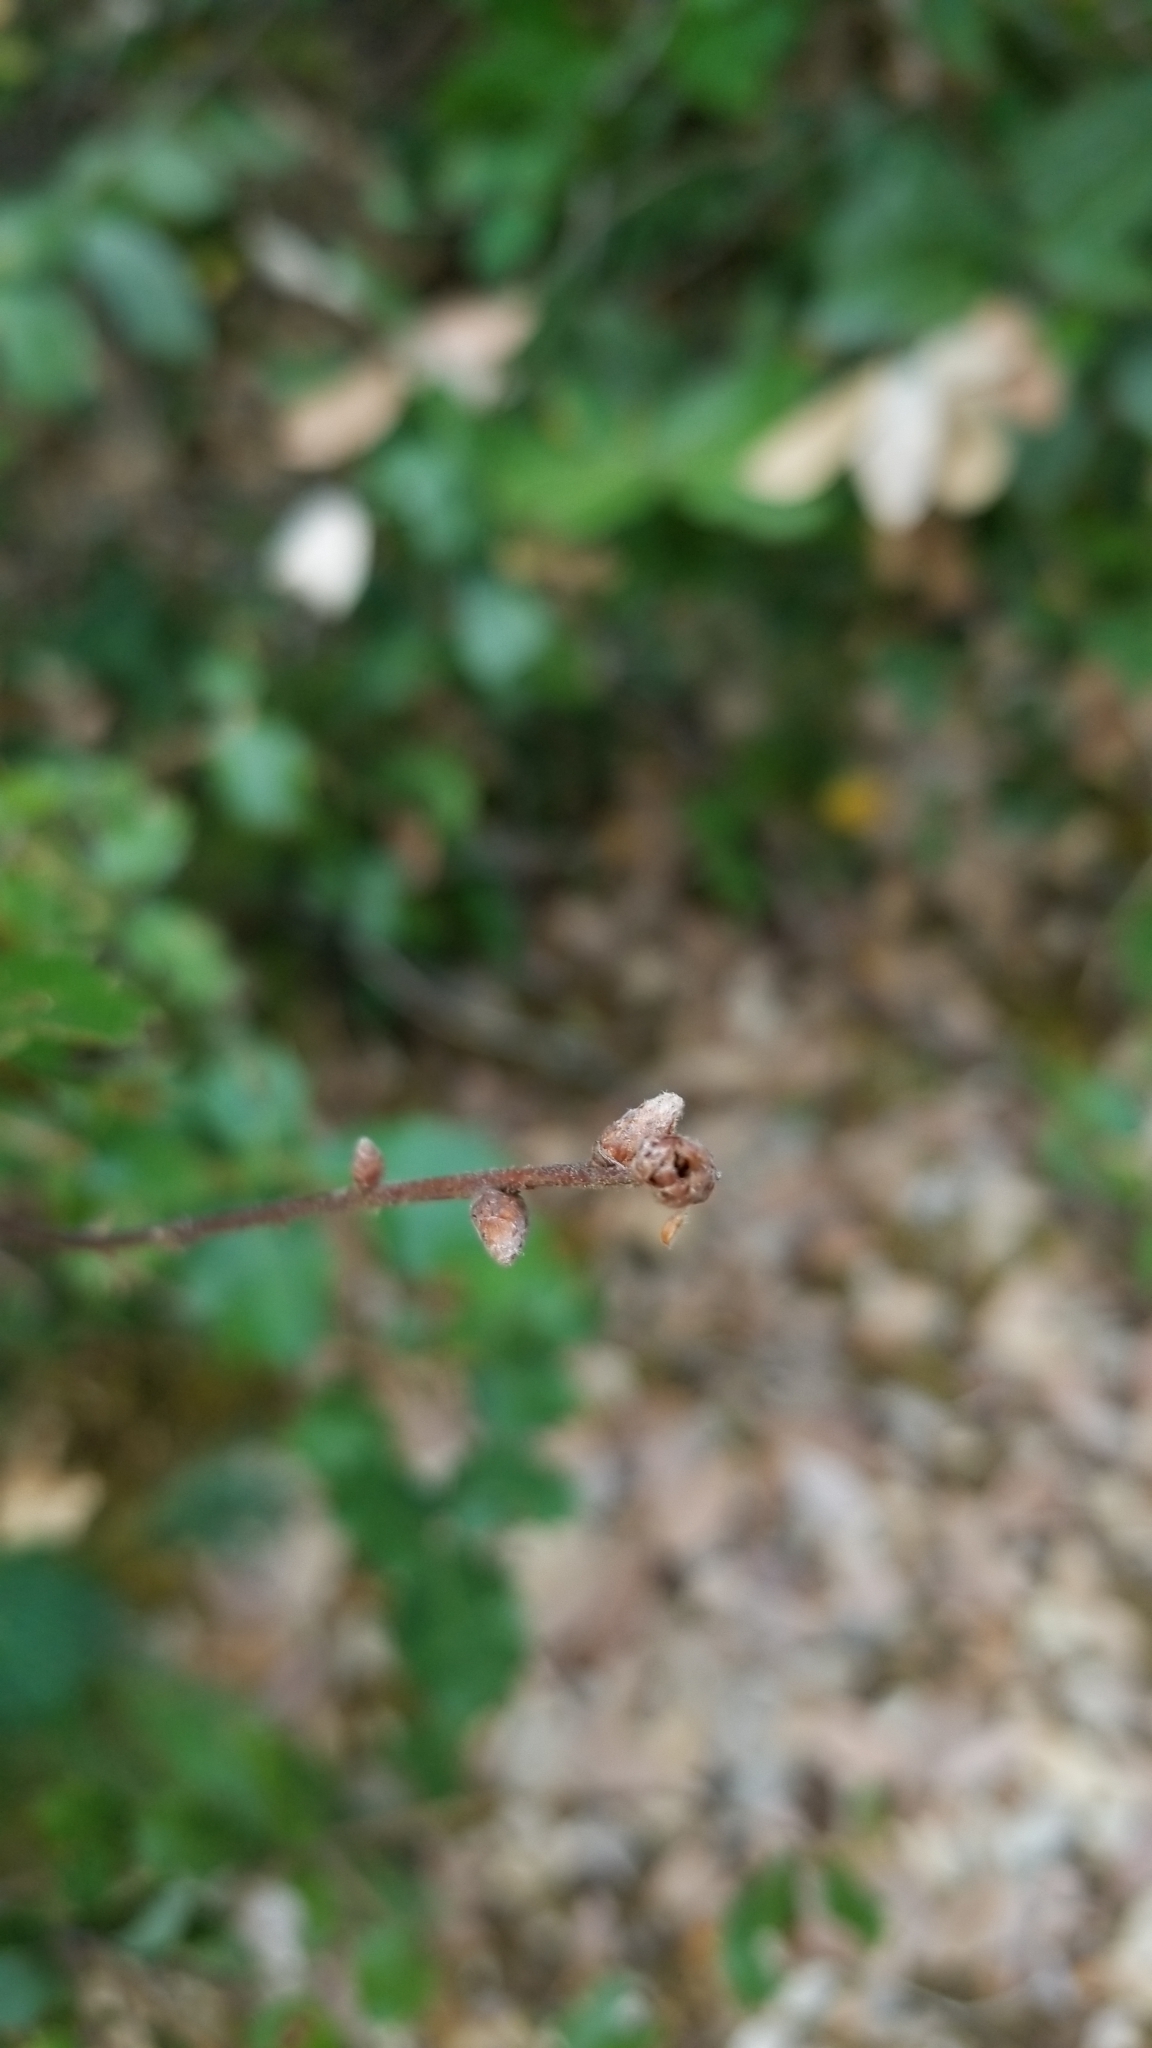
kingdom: Plantae
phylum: Tracheophyta
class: Magnoliopsida
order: Fagales
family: Fagaceae
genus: Quercus
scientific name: Quercus chrysolepis
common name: Canyon live oak
